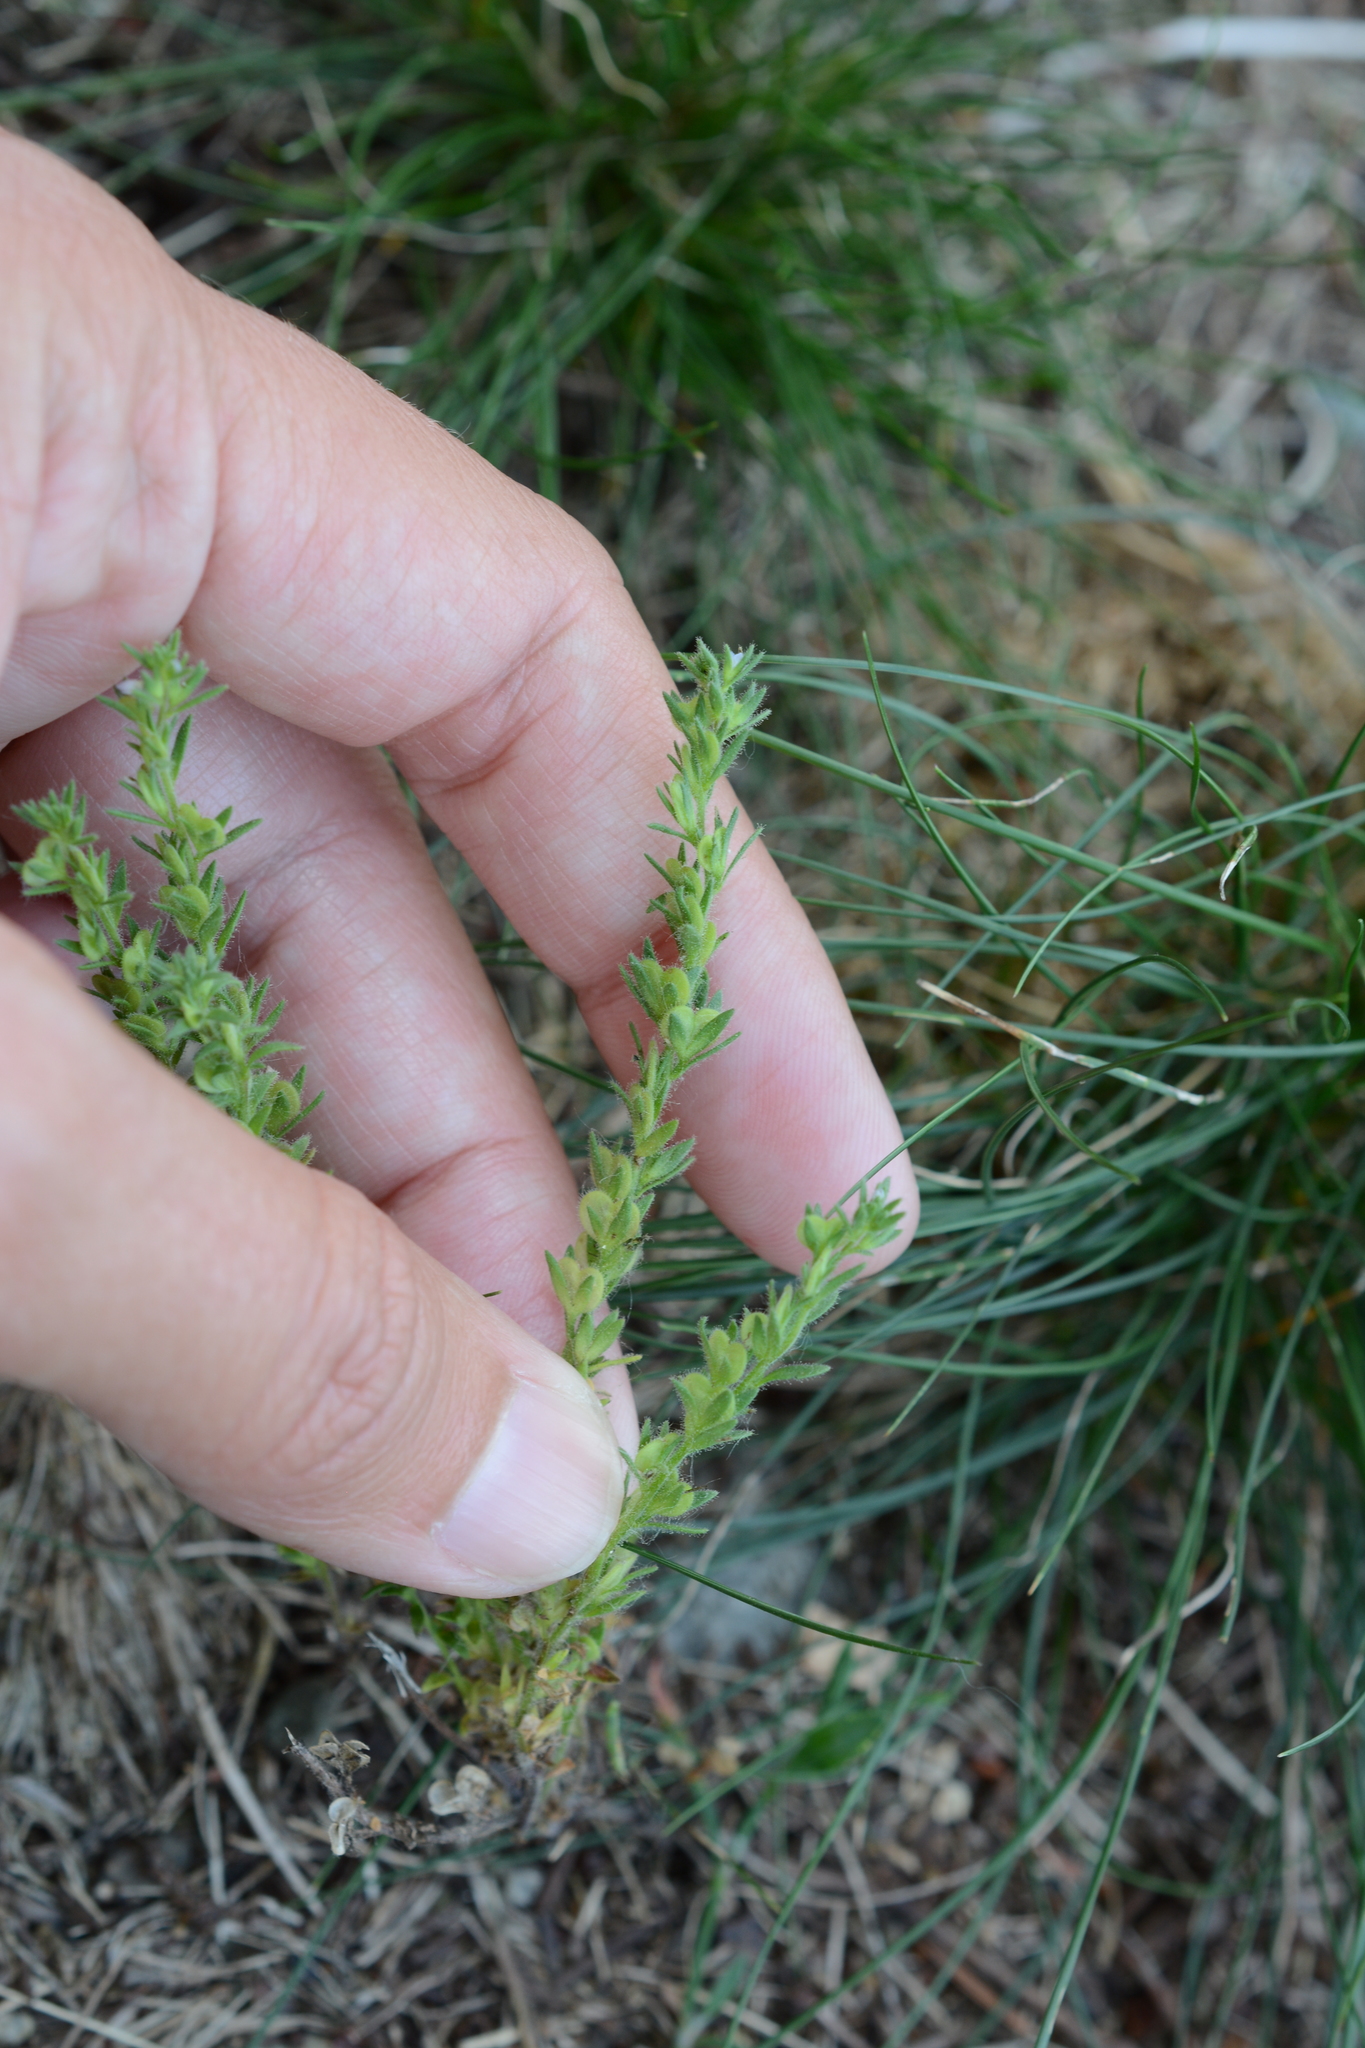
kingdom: Plantae
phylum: Tracheophyta
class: Magnoliopsida
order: Lamiales
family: Plantaginaceae
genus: Veronica
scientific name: Veronica verna
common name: Spring speedwell
